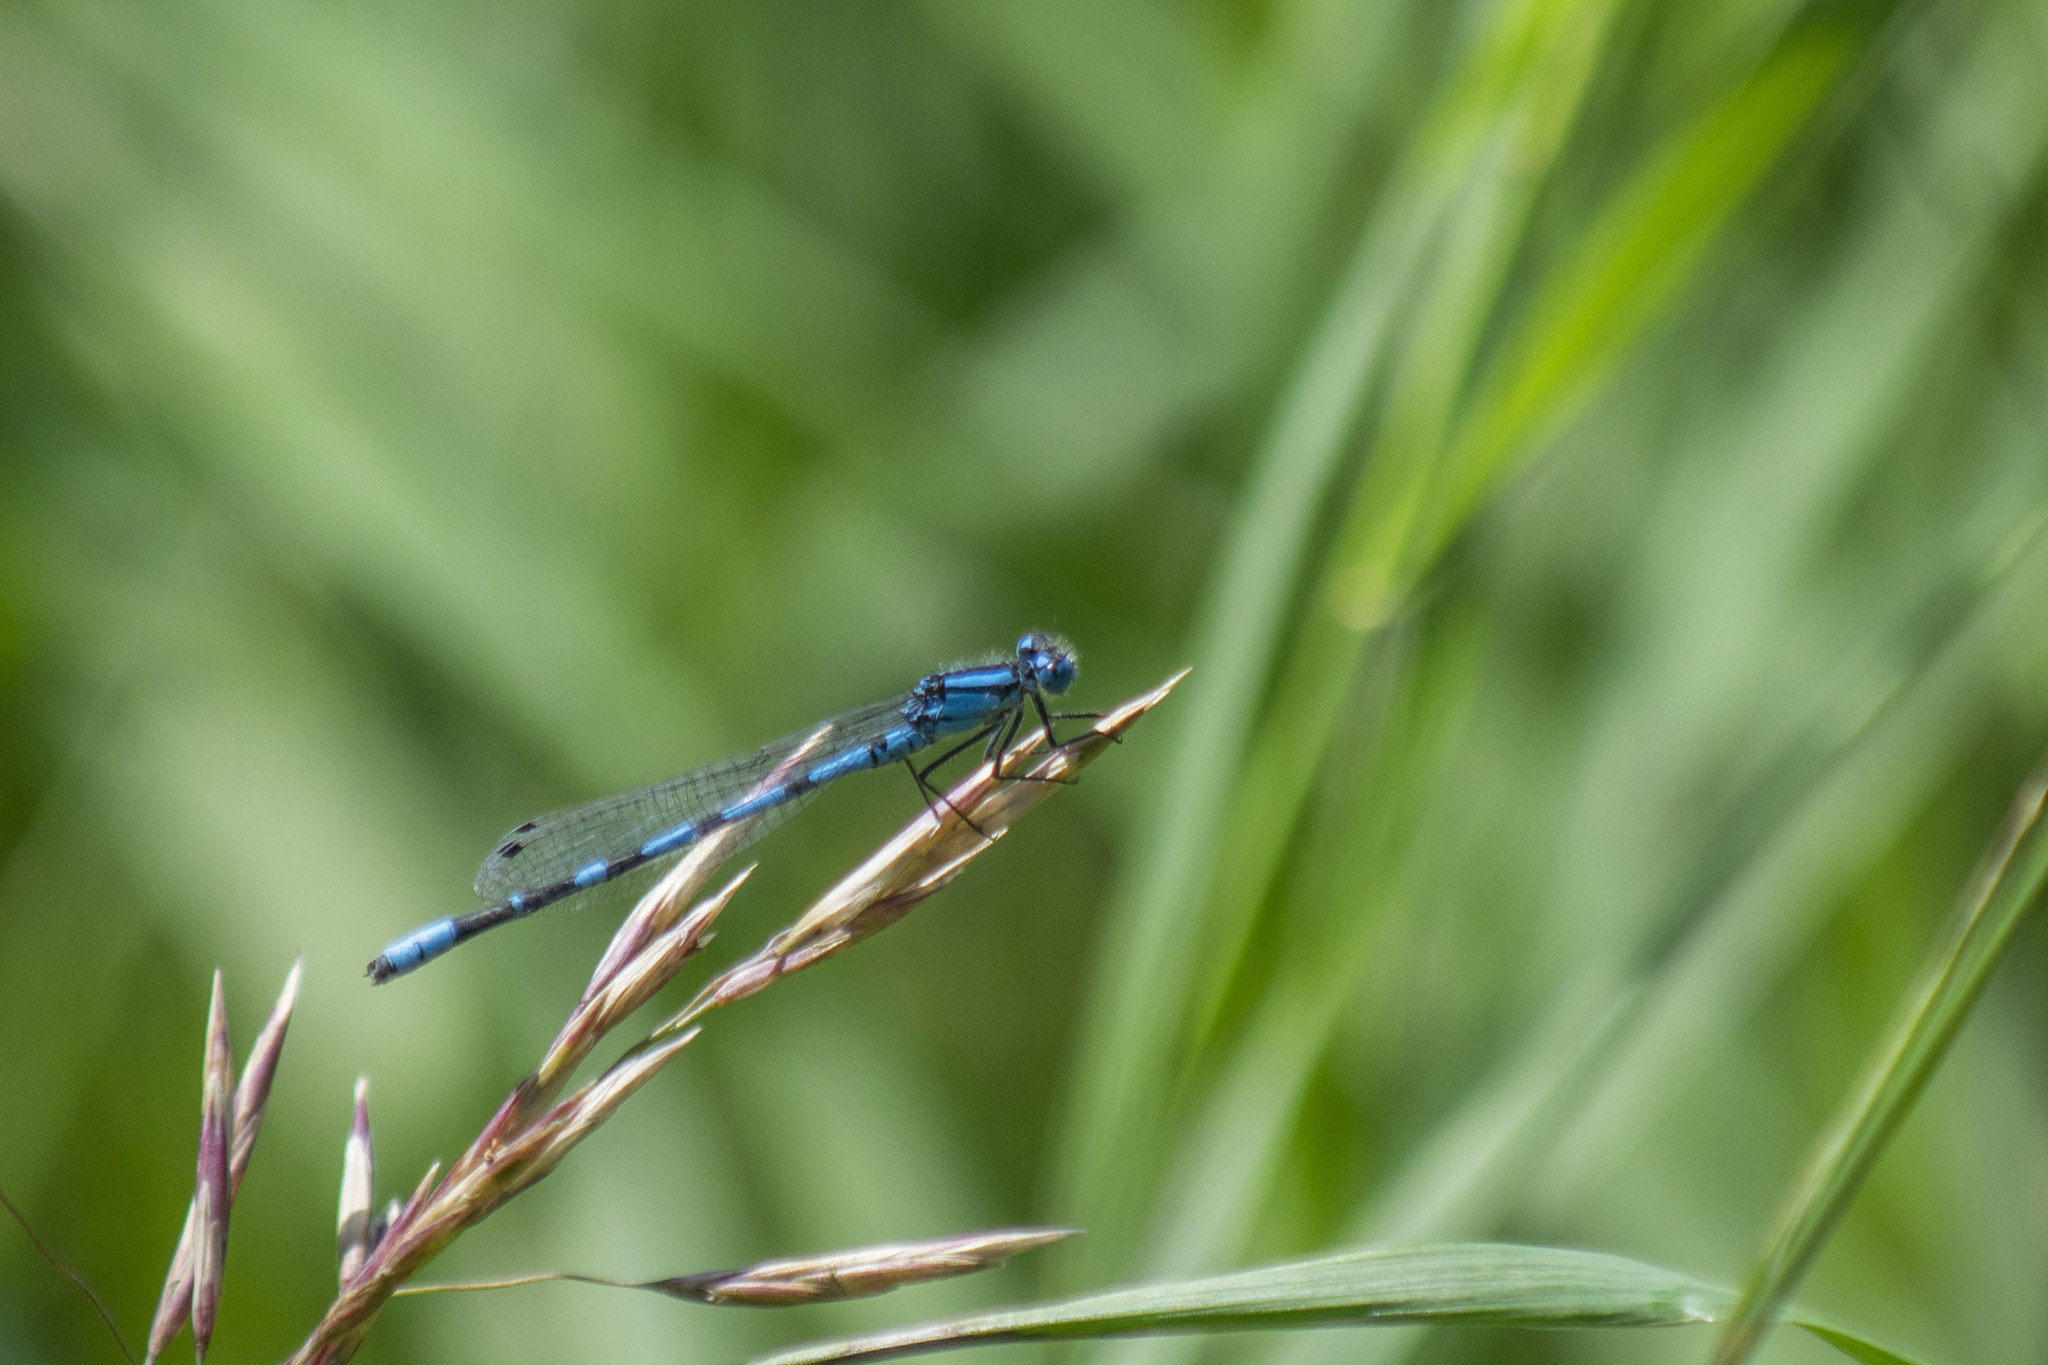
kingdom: Animalia
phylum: Arthropoda
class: Insecta
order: Odonata
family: Coenagrionidae
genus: Enallagma
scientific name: Enallagma cyathigerum
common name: Common blue damselfly
